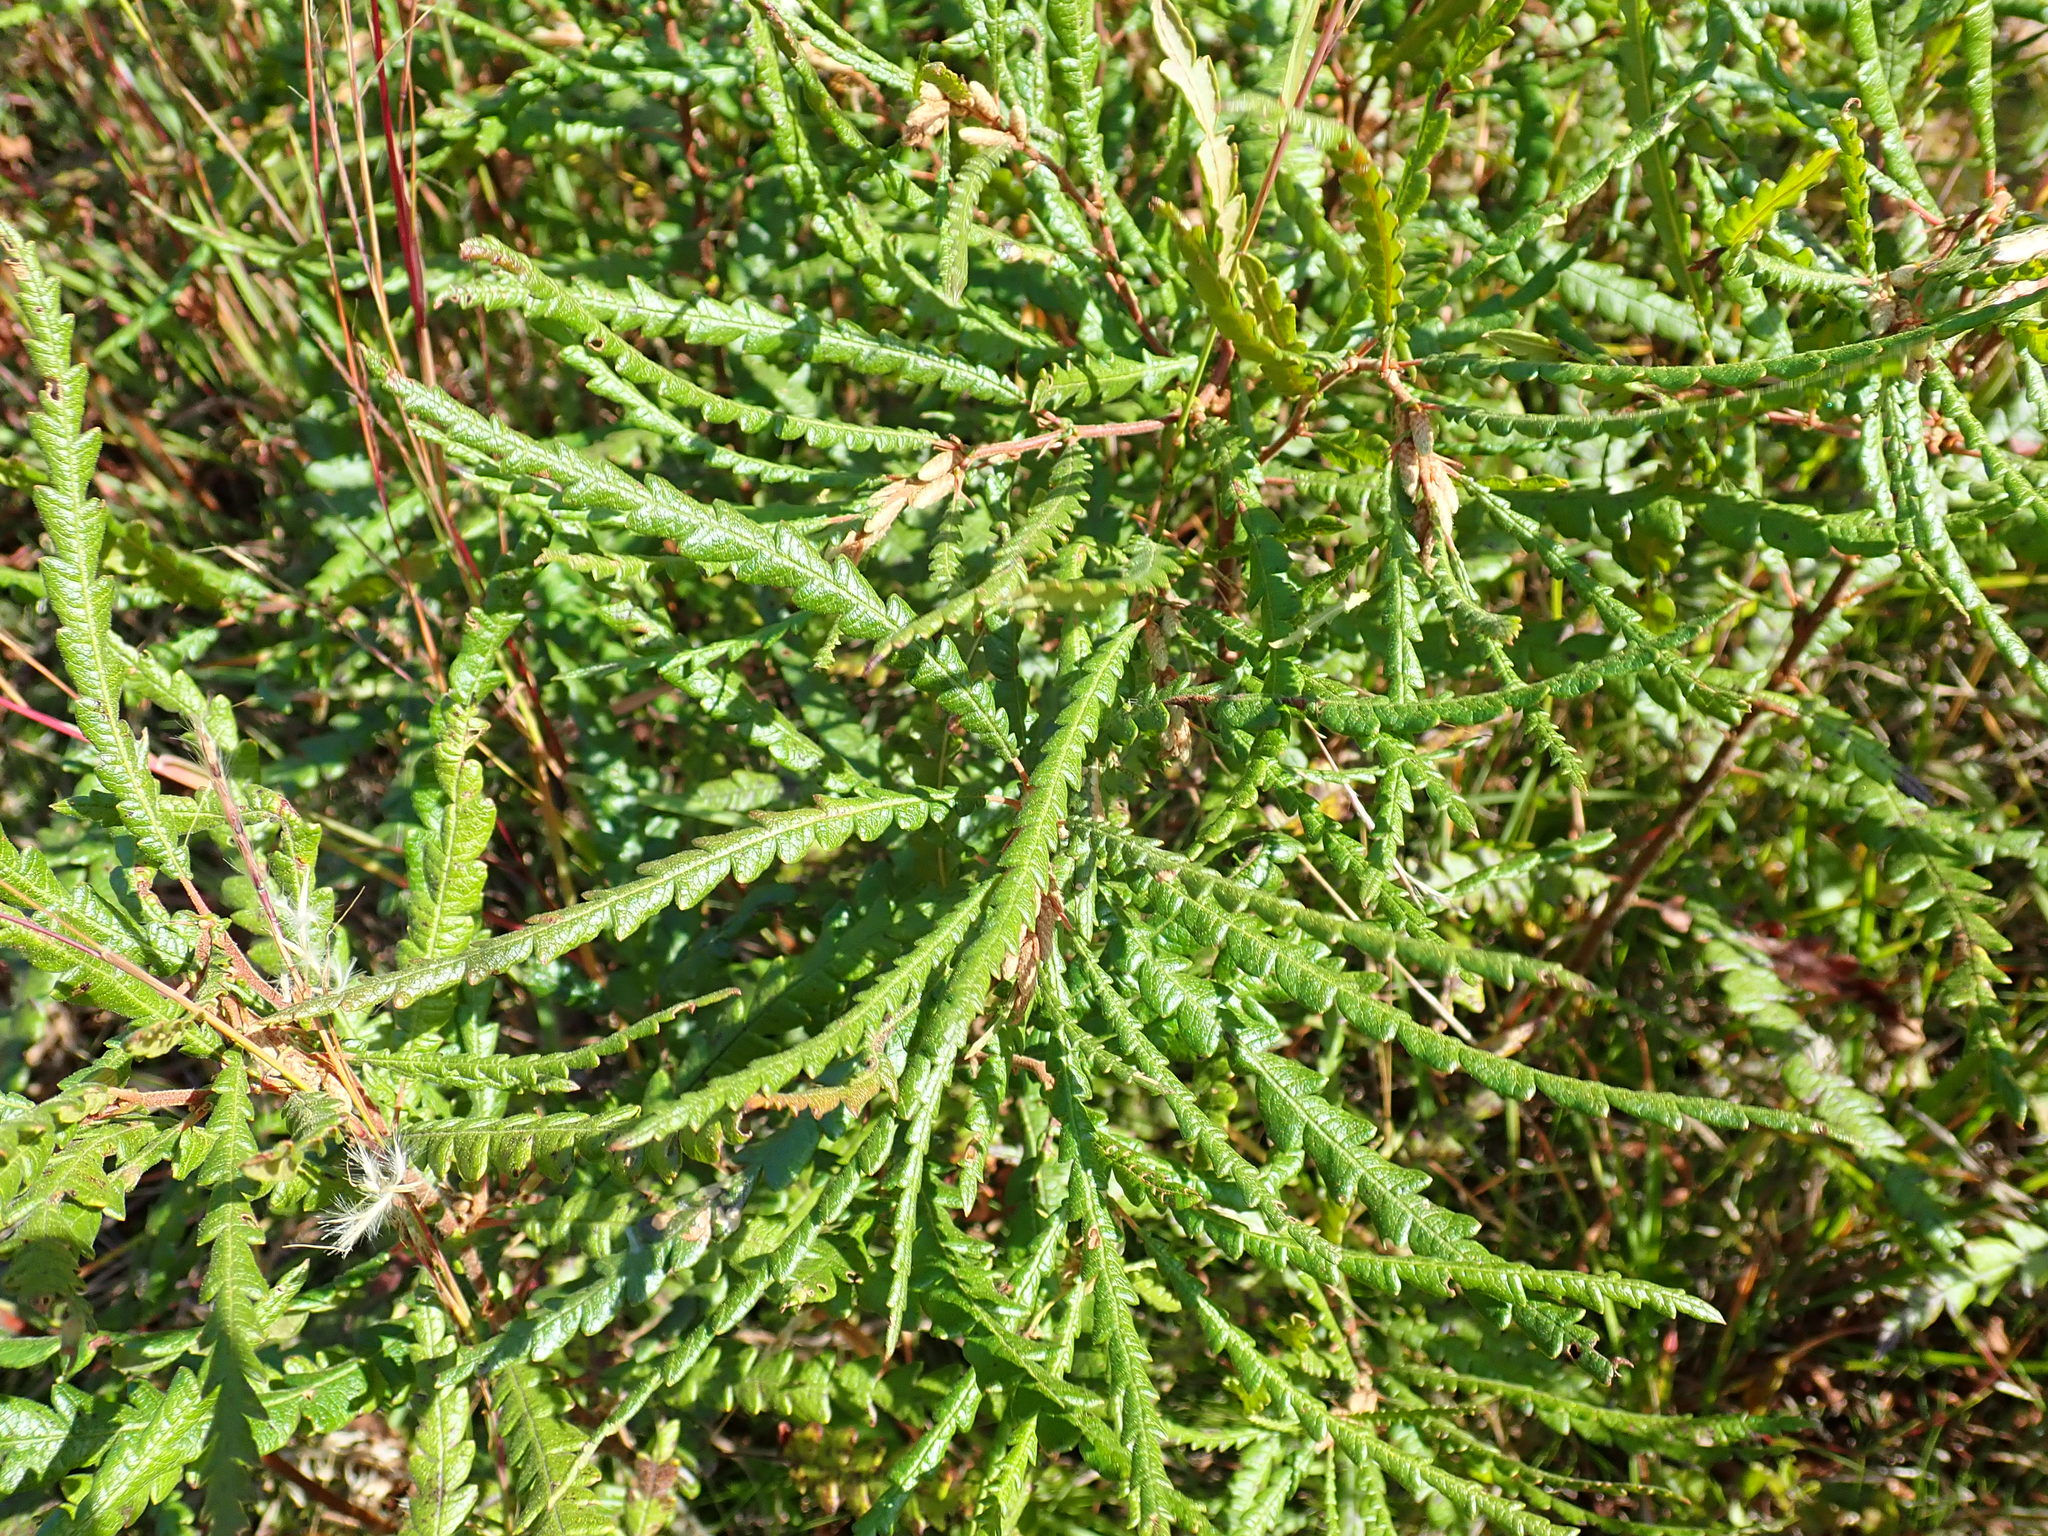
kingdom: Plantae
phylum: Tracheophyta
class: Magnoliopsida
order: Fagales
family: Myricaceae
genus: Comptonia
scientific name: Comptonia peregrina
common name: Sweet-fern
